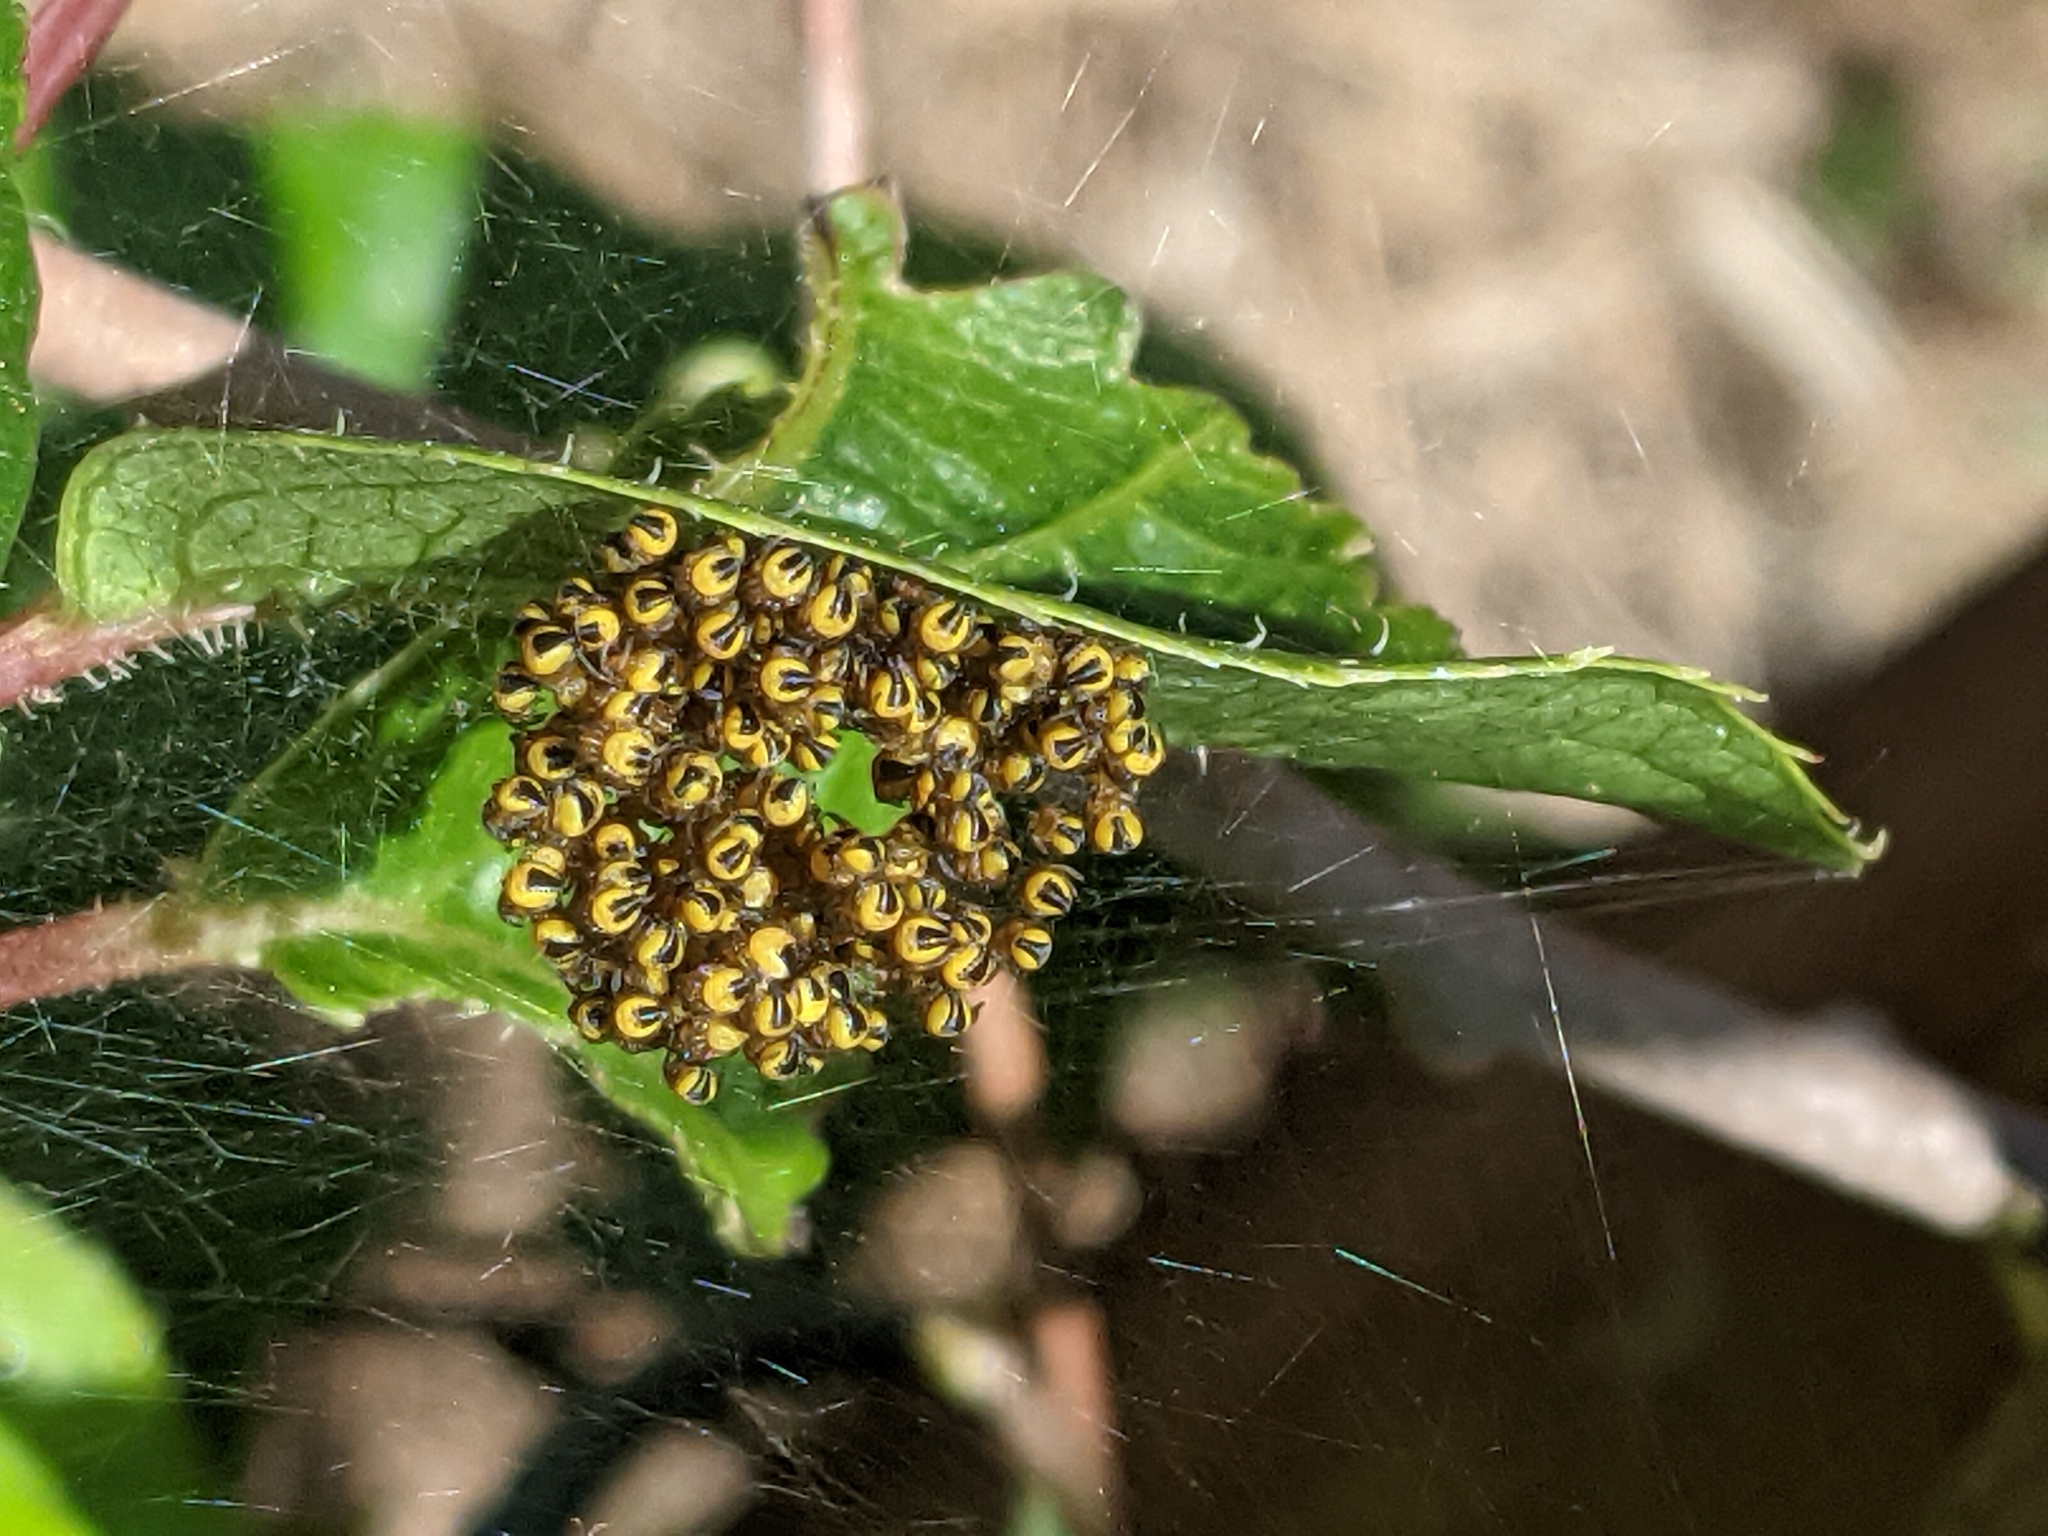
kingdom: Animalia
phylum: Arthropoda
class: Arachnida
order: Araneae
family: Araneidae
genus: Araneus
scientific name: Araneus diadematus
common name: Cross orbweaver
